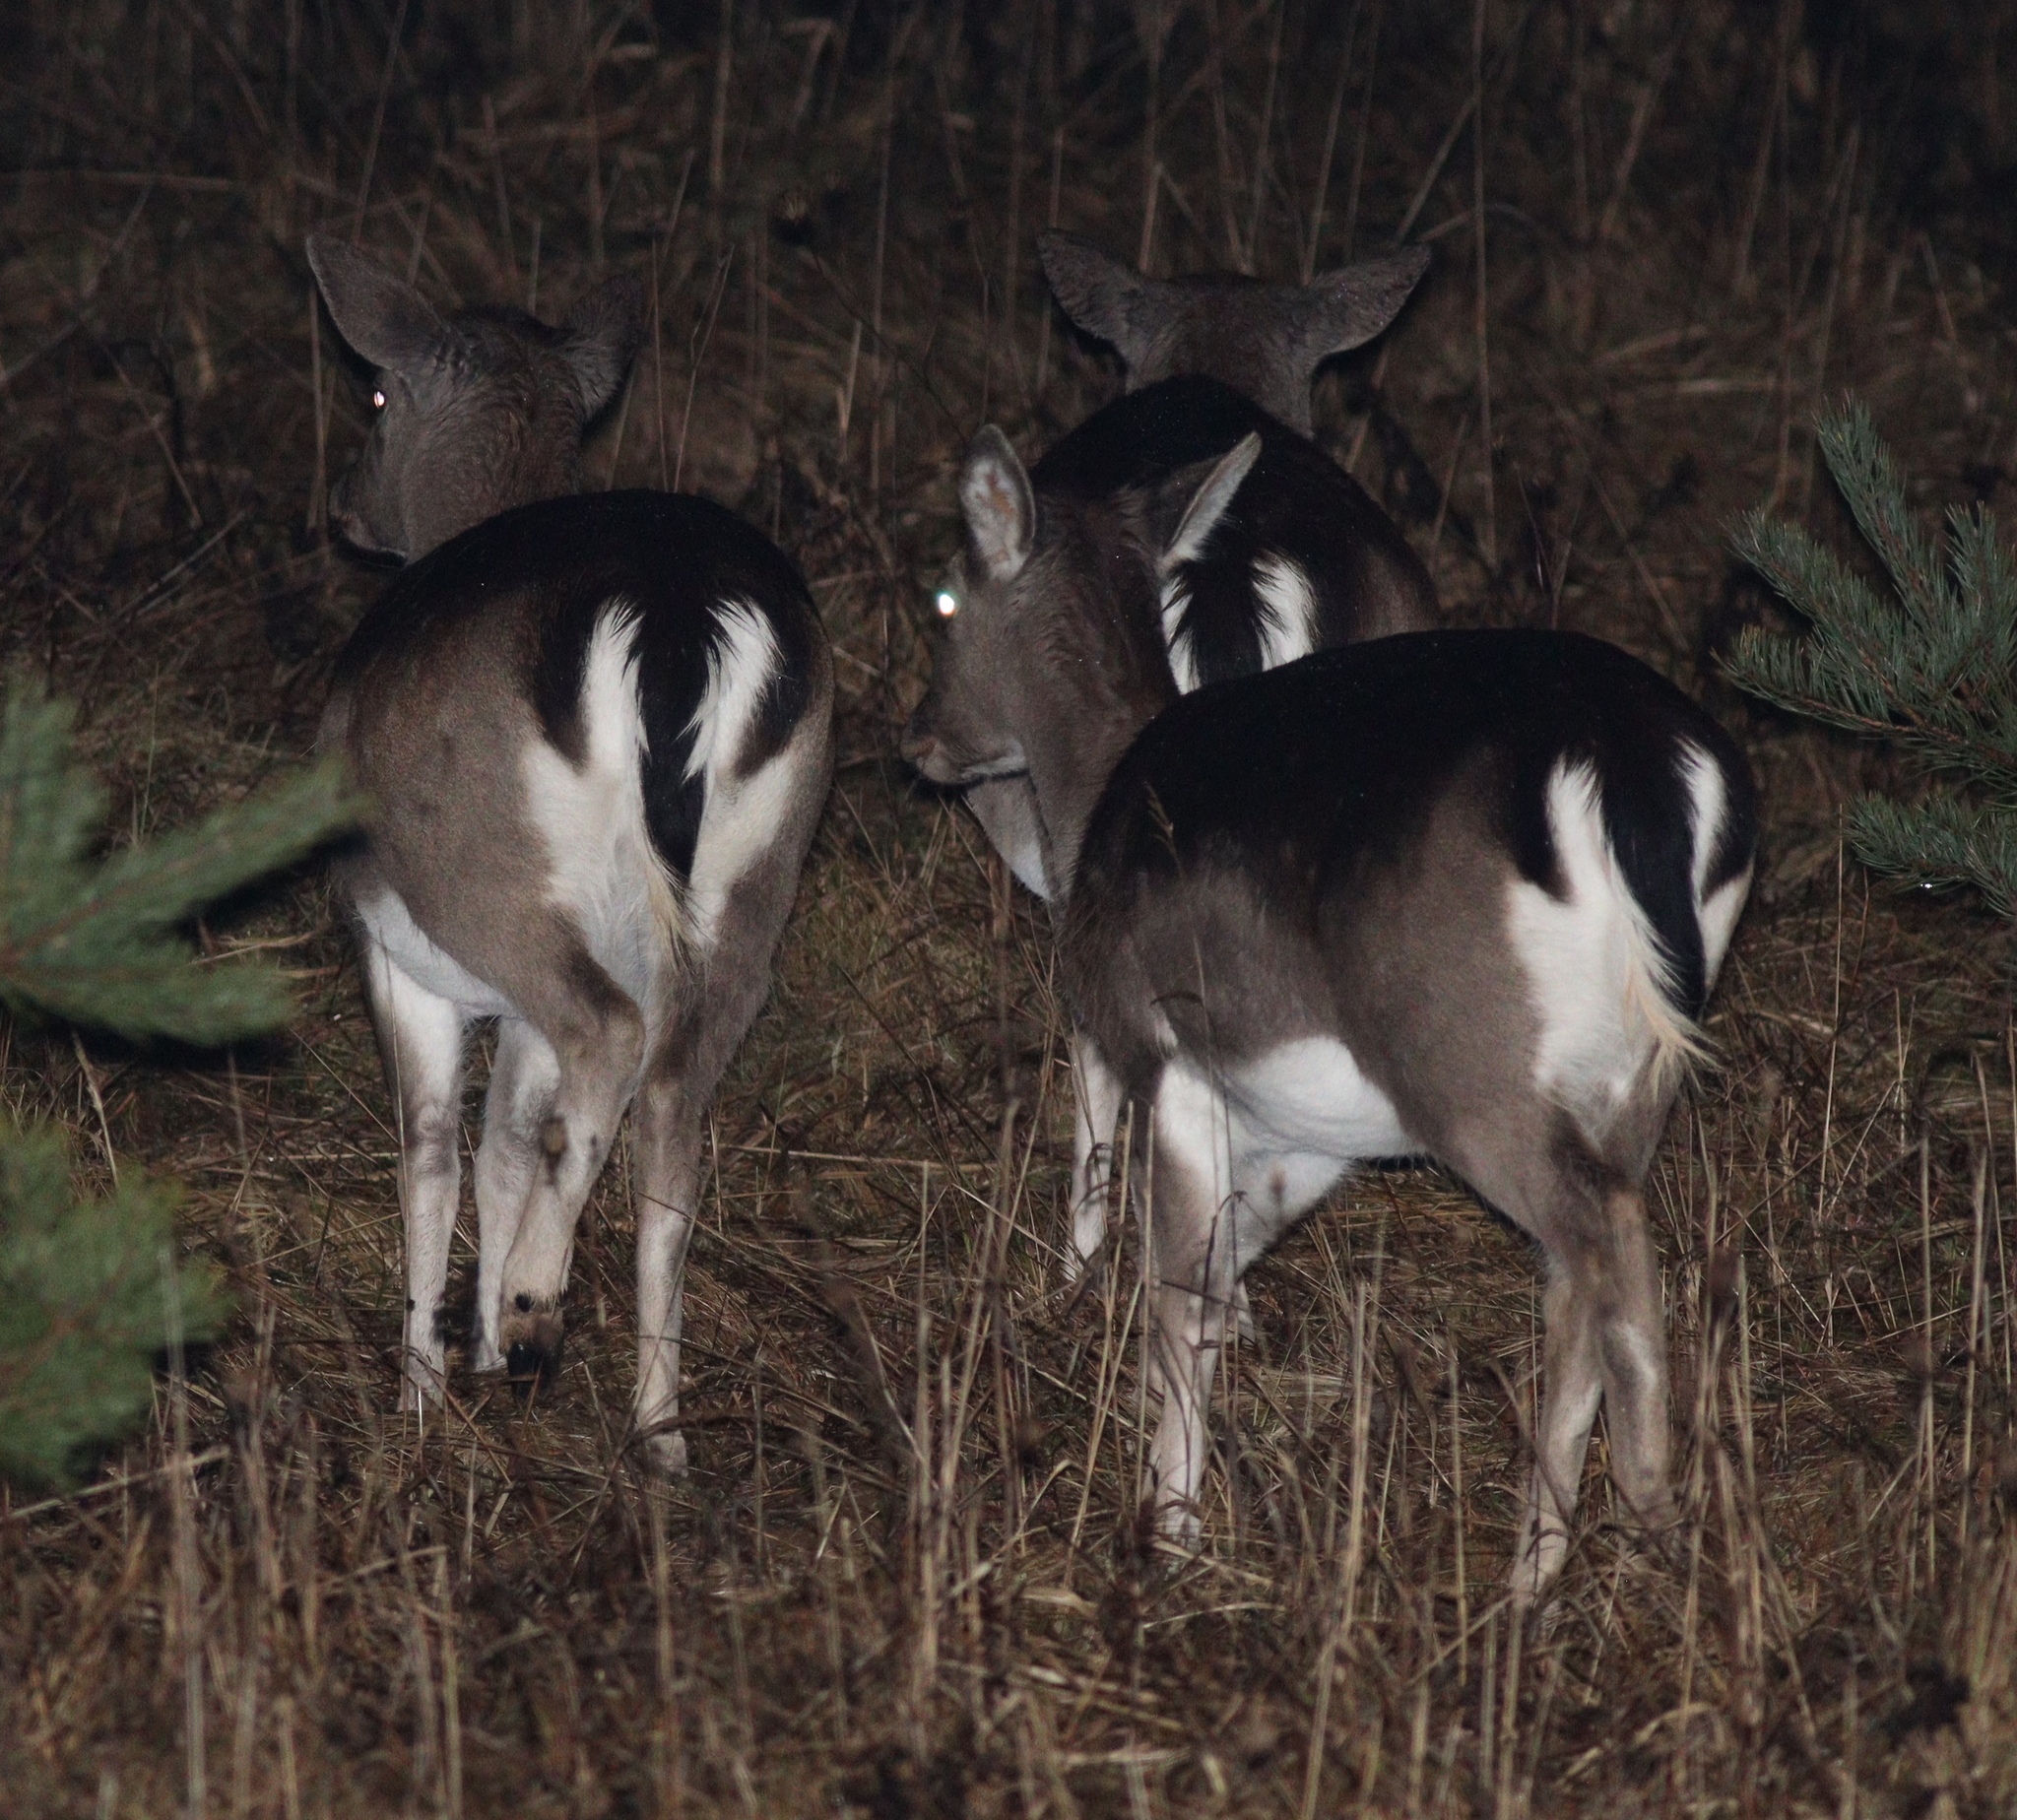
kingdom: Animalia
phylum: Chordata
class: Mammalia
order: Artiodactyla
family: Cervidae
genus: Dama
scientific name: Dama dama
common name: Fallow deer
